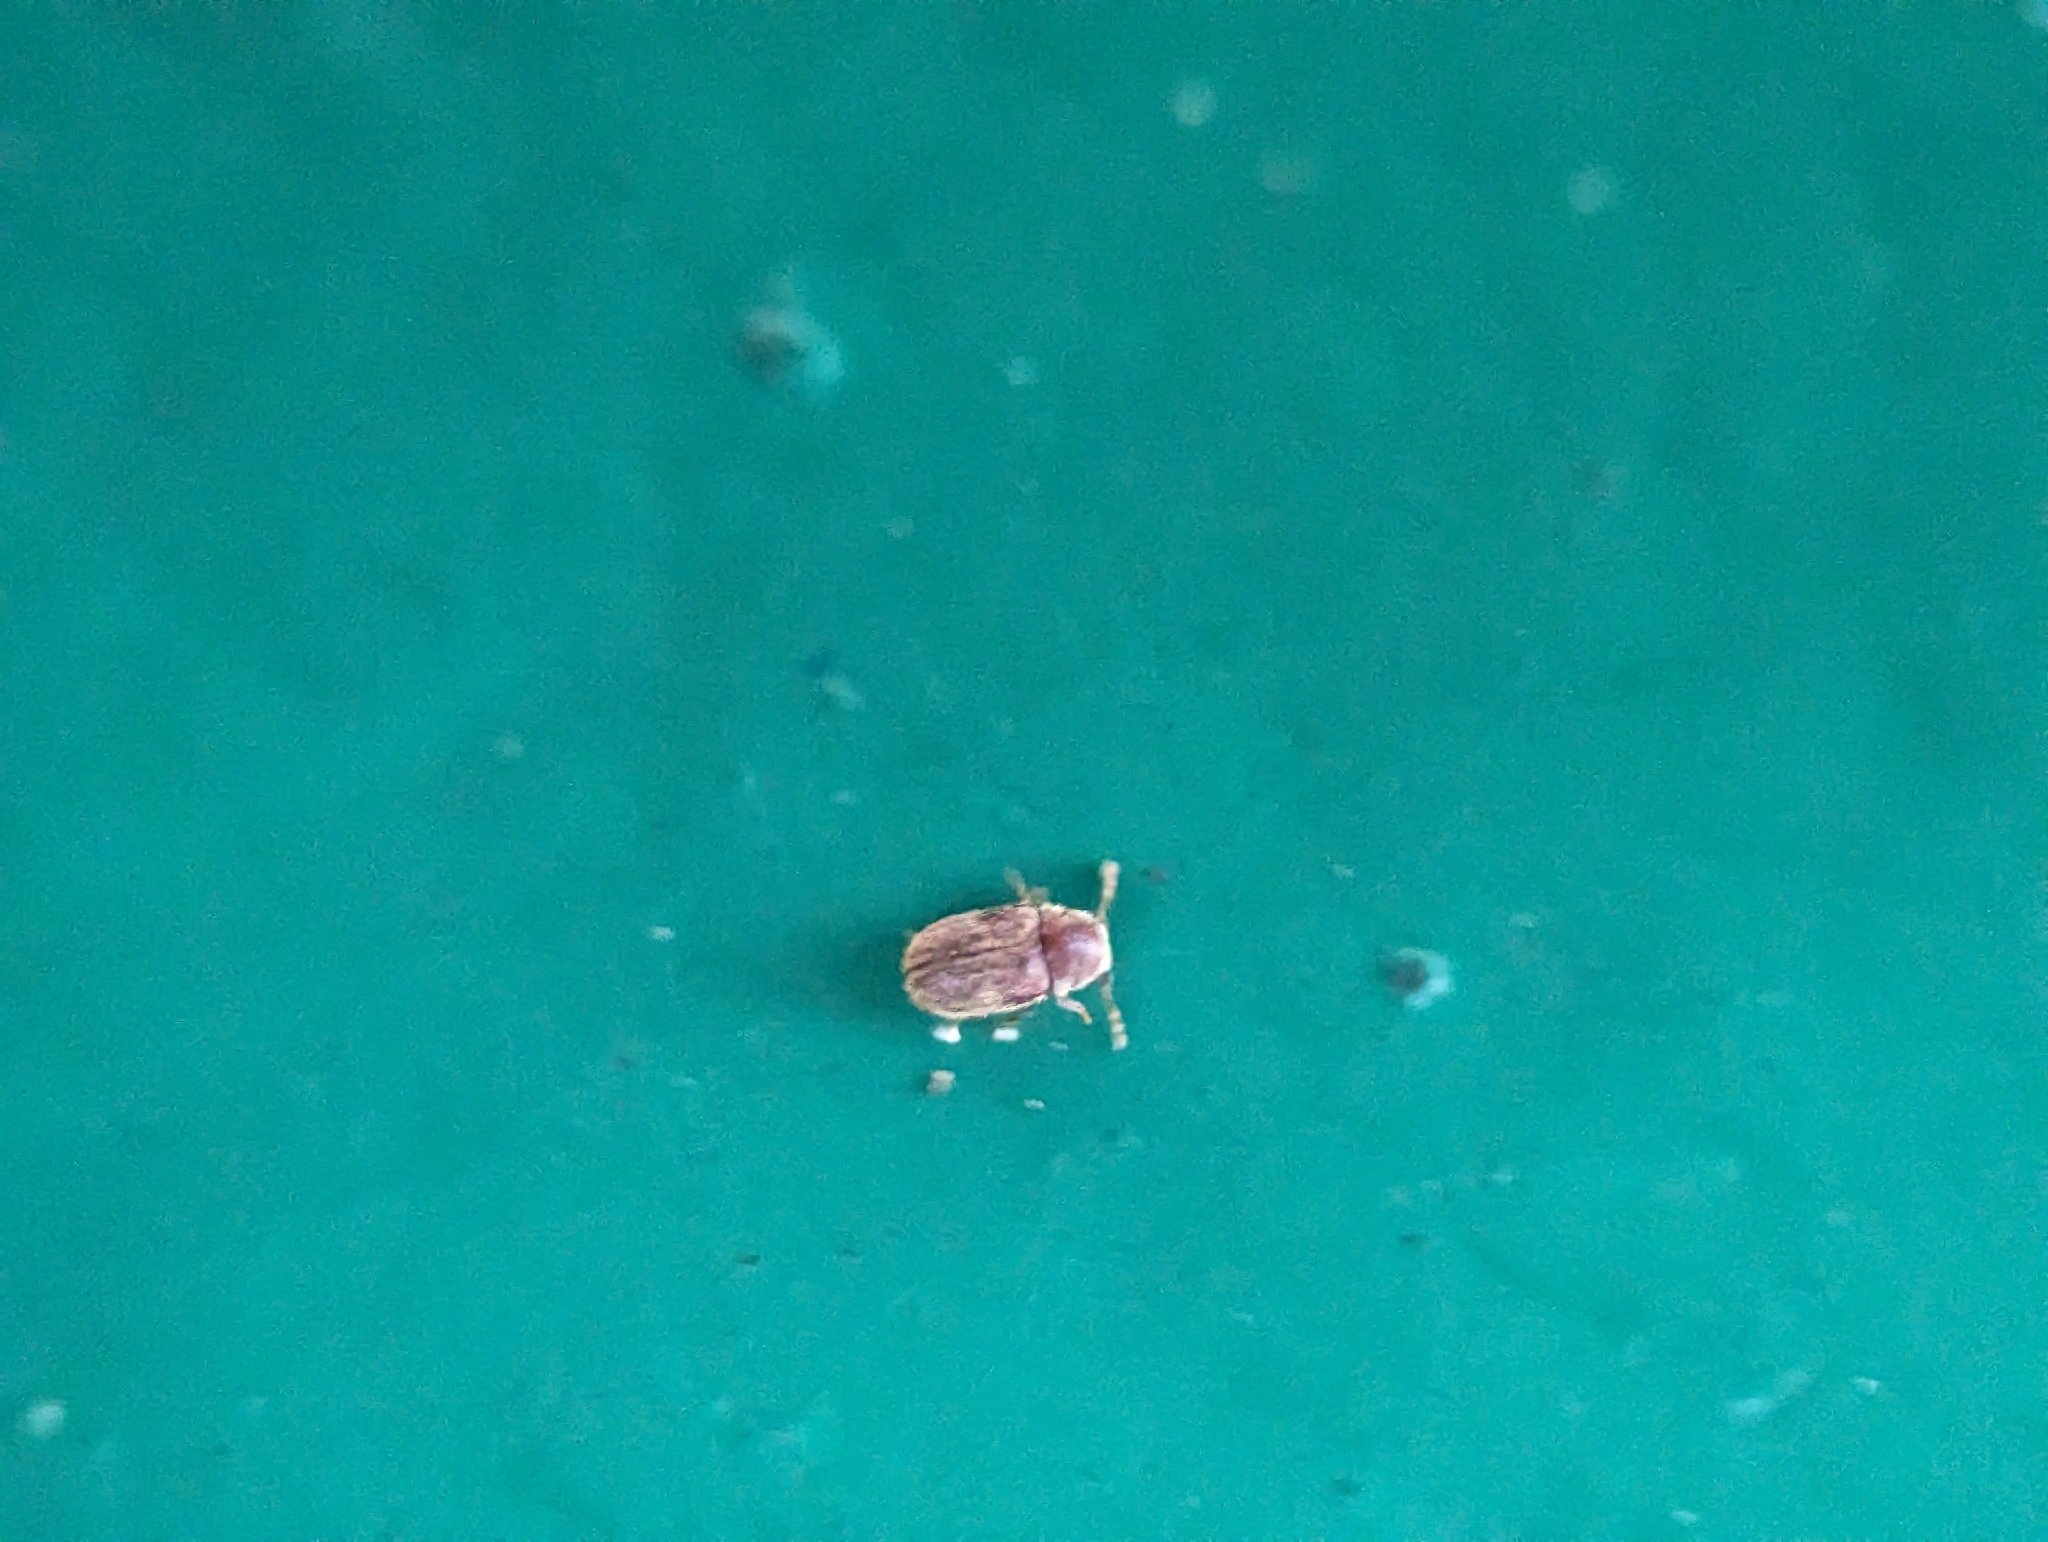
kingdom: Animalia
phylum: Arthropoda
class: Insecta
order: Coleoptera
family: Anobiidae
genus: Protheca
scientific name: Protheca hispida
